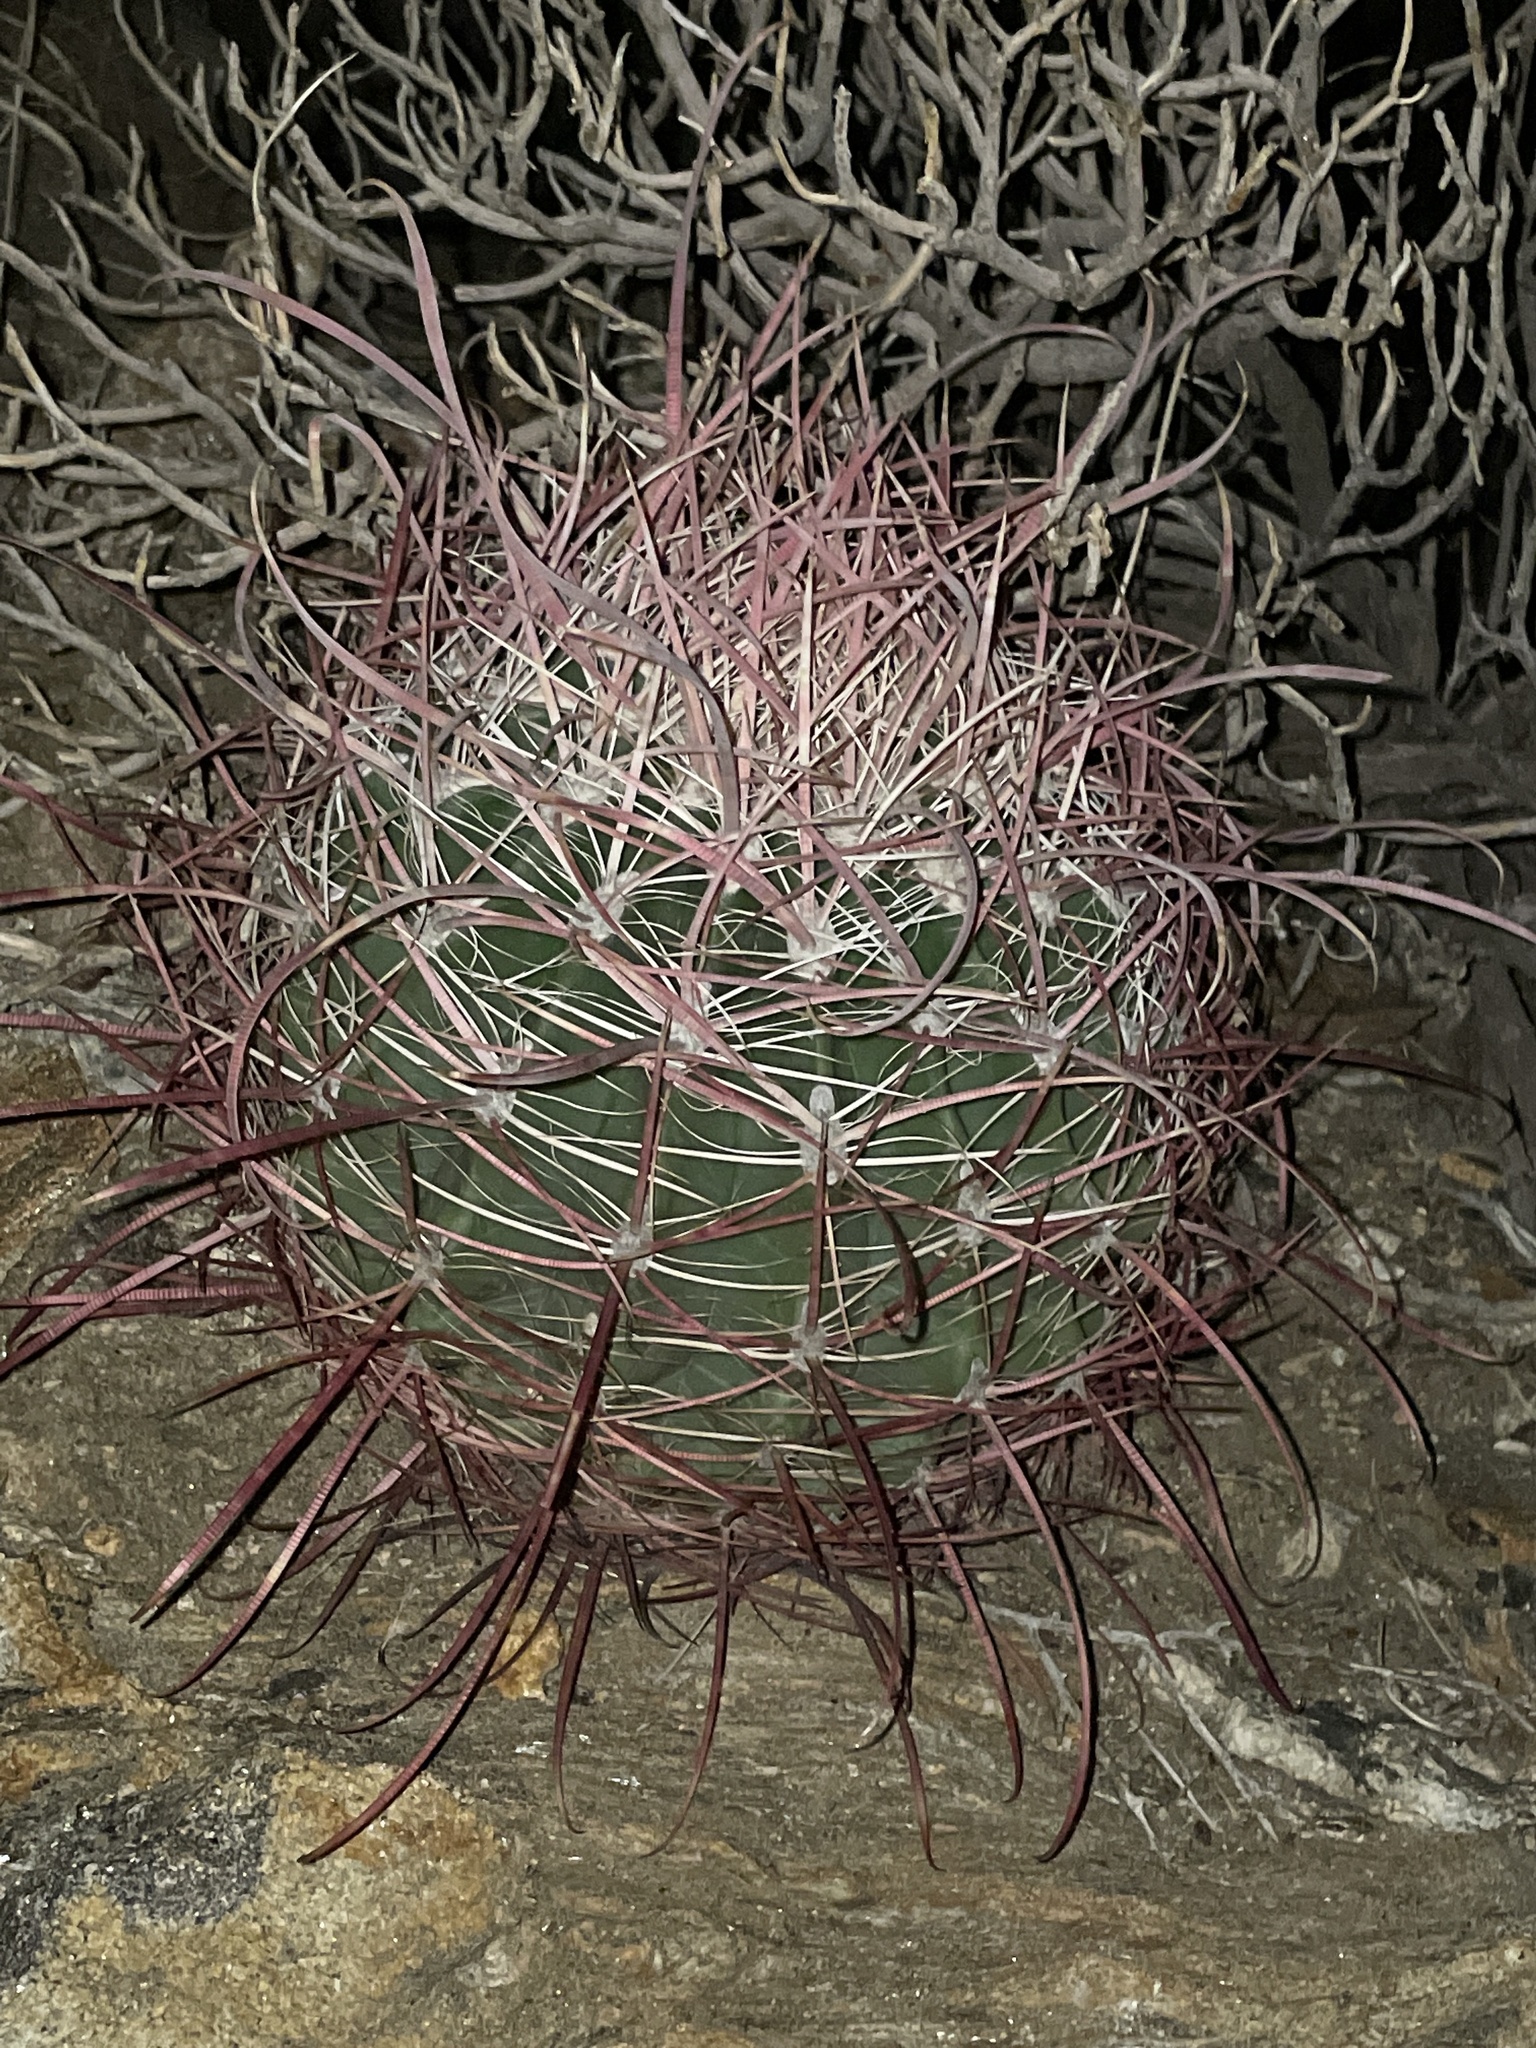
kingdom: Plantae
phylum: Tracheophyta
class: Magnoliopsida
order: Caryophyllales
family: Cactaceae
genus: Ferocactus
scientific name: Ferocactus cylindraceus
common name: California barrel cactus
